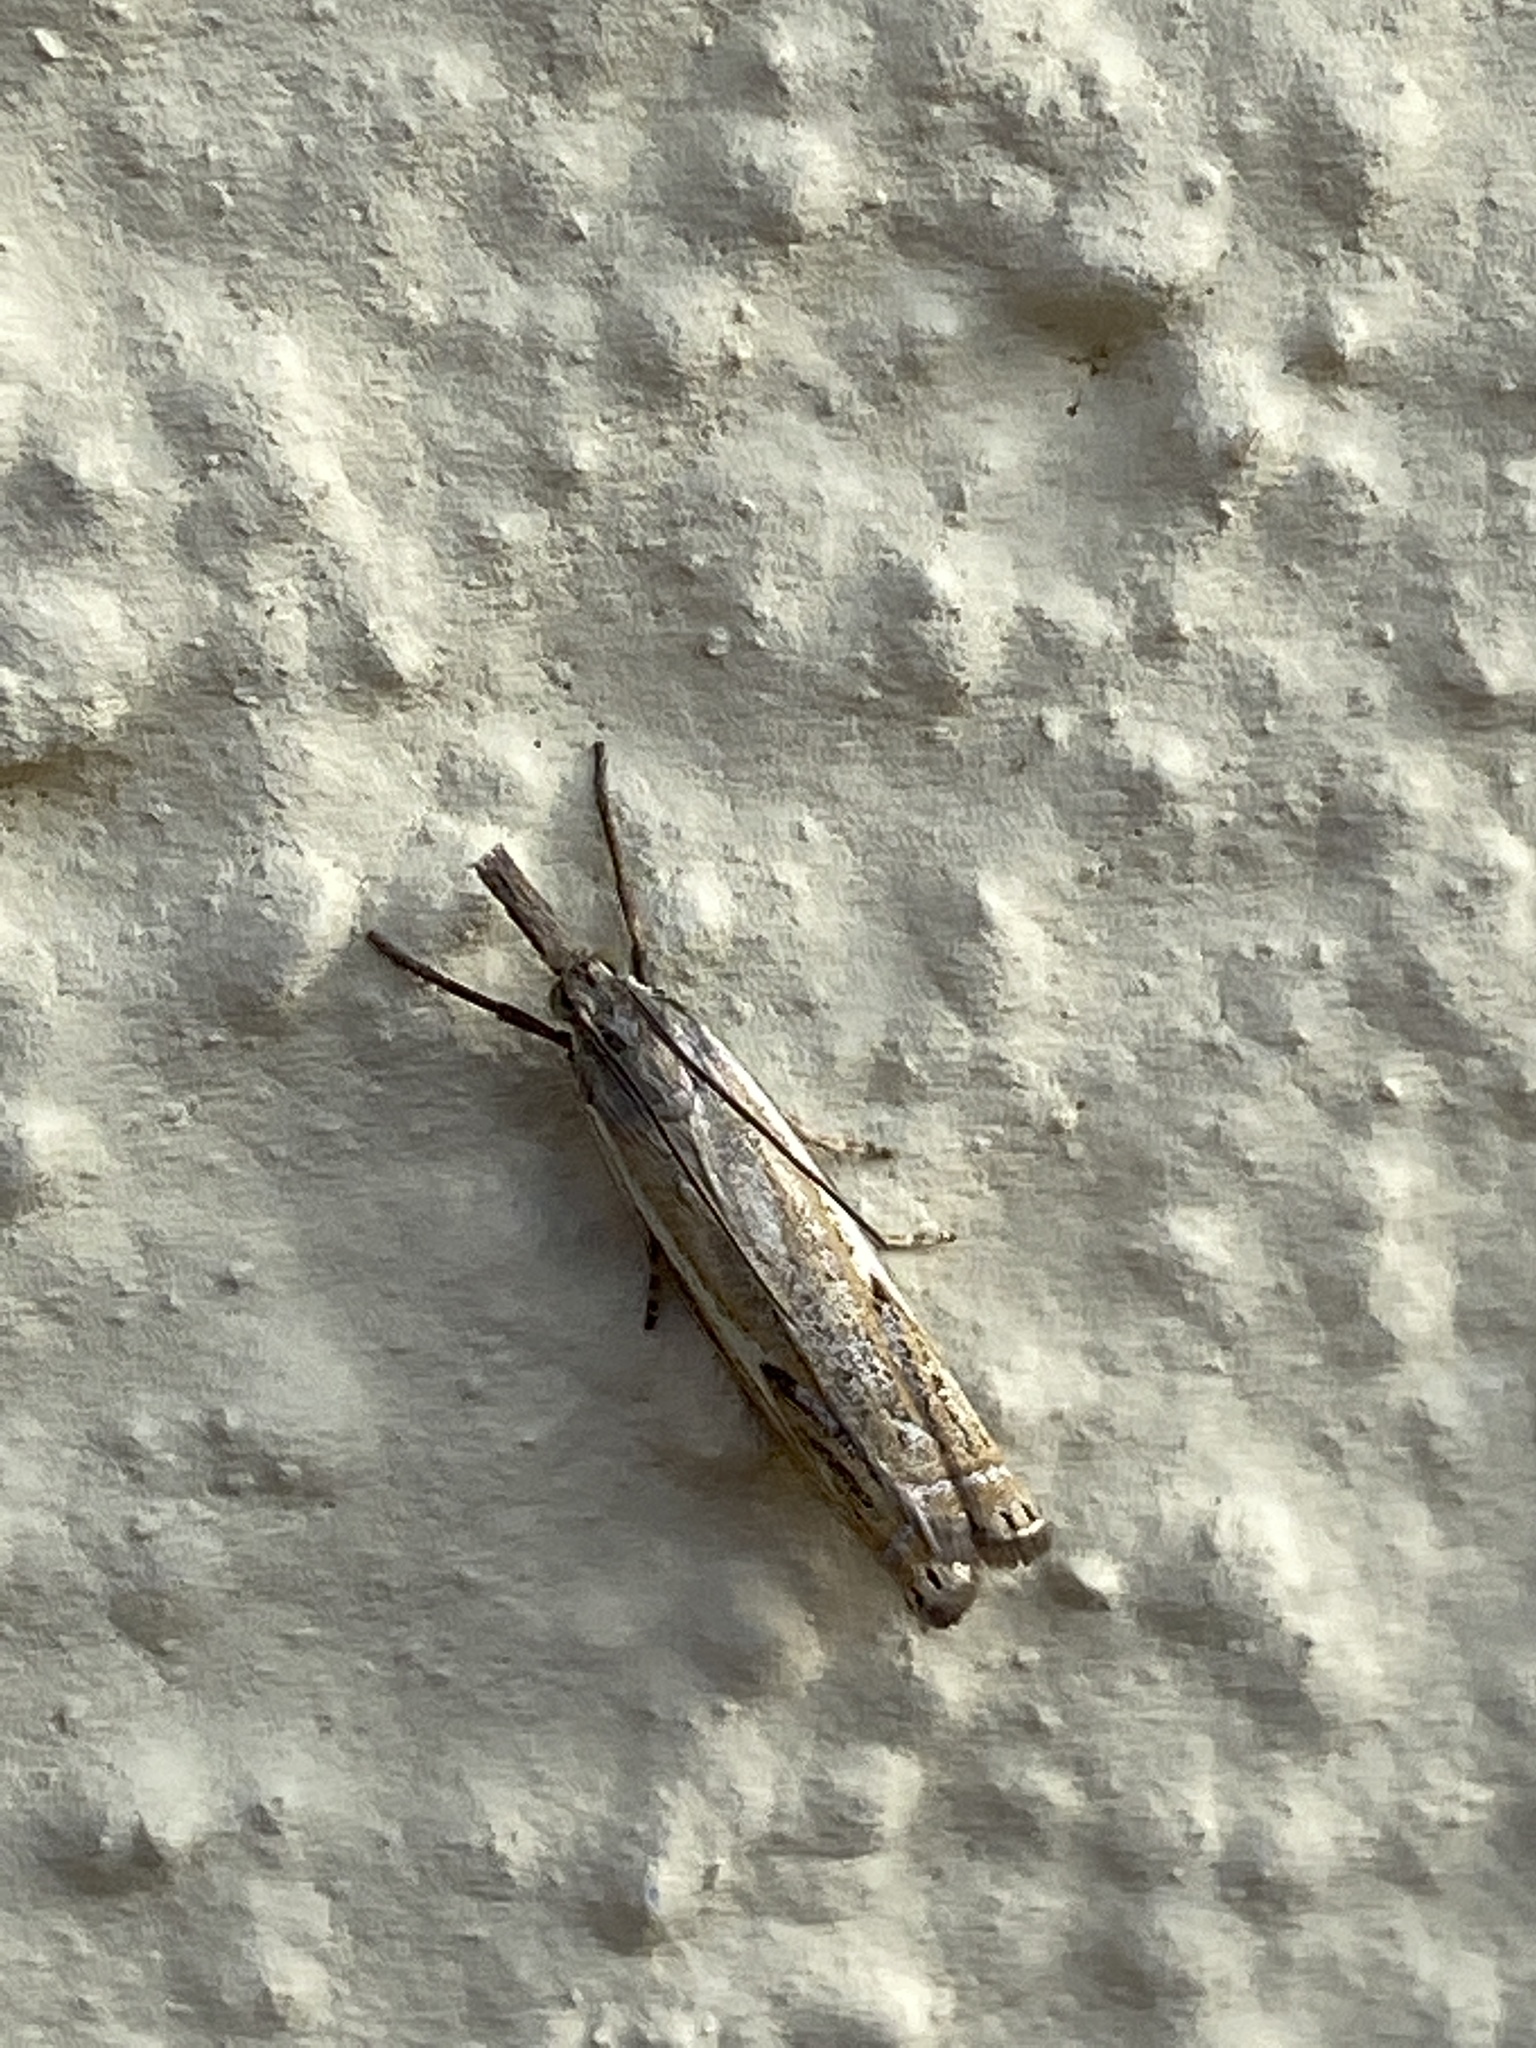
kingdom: Animalia
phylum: Arthropoda
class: Insecta
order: Lepidoptera
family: Crambidae
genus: Crambus
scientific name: Crambus nemorella
